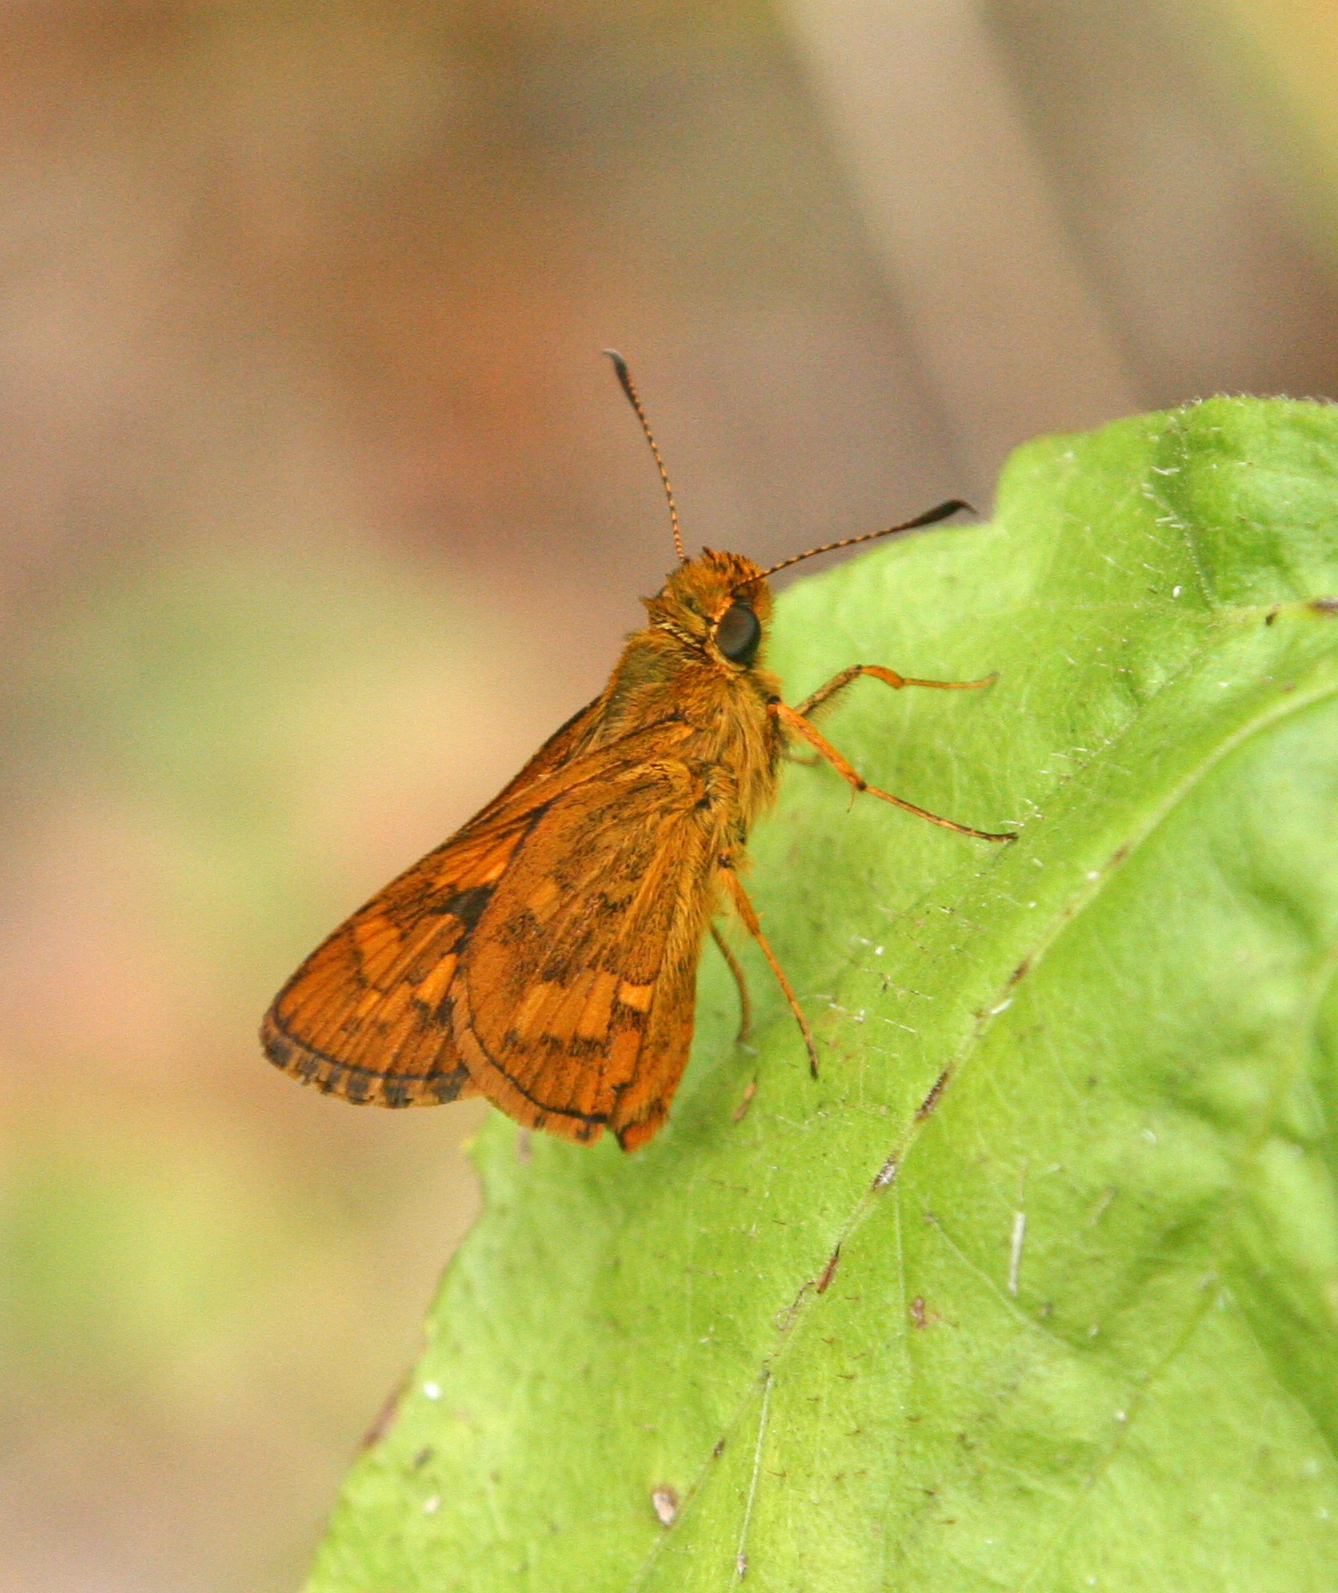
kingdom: Animalia
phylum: Arthropoda
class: Insecta
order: Lepidoptera
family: Hesperiidae
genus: Potanthus
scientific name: Potanthus ganda
